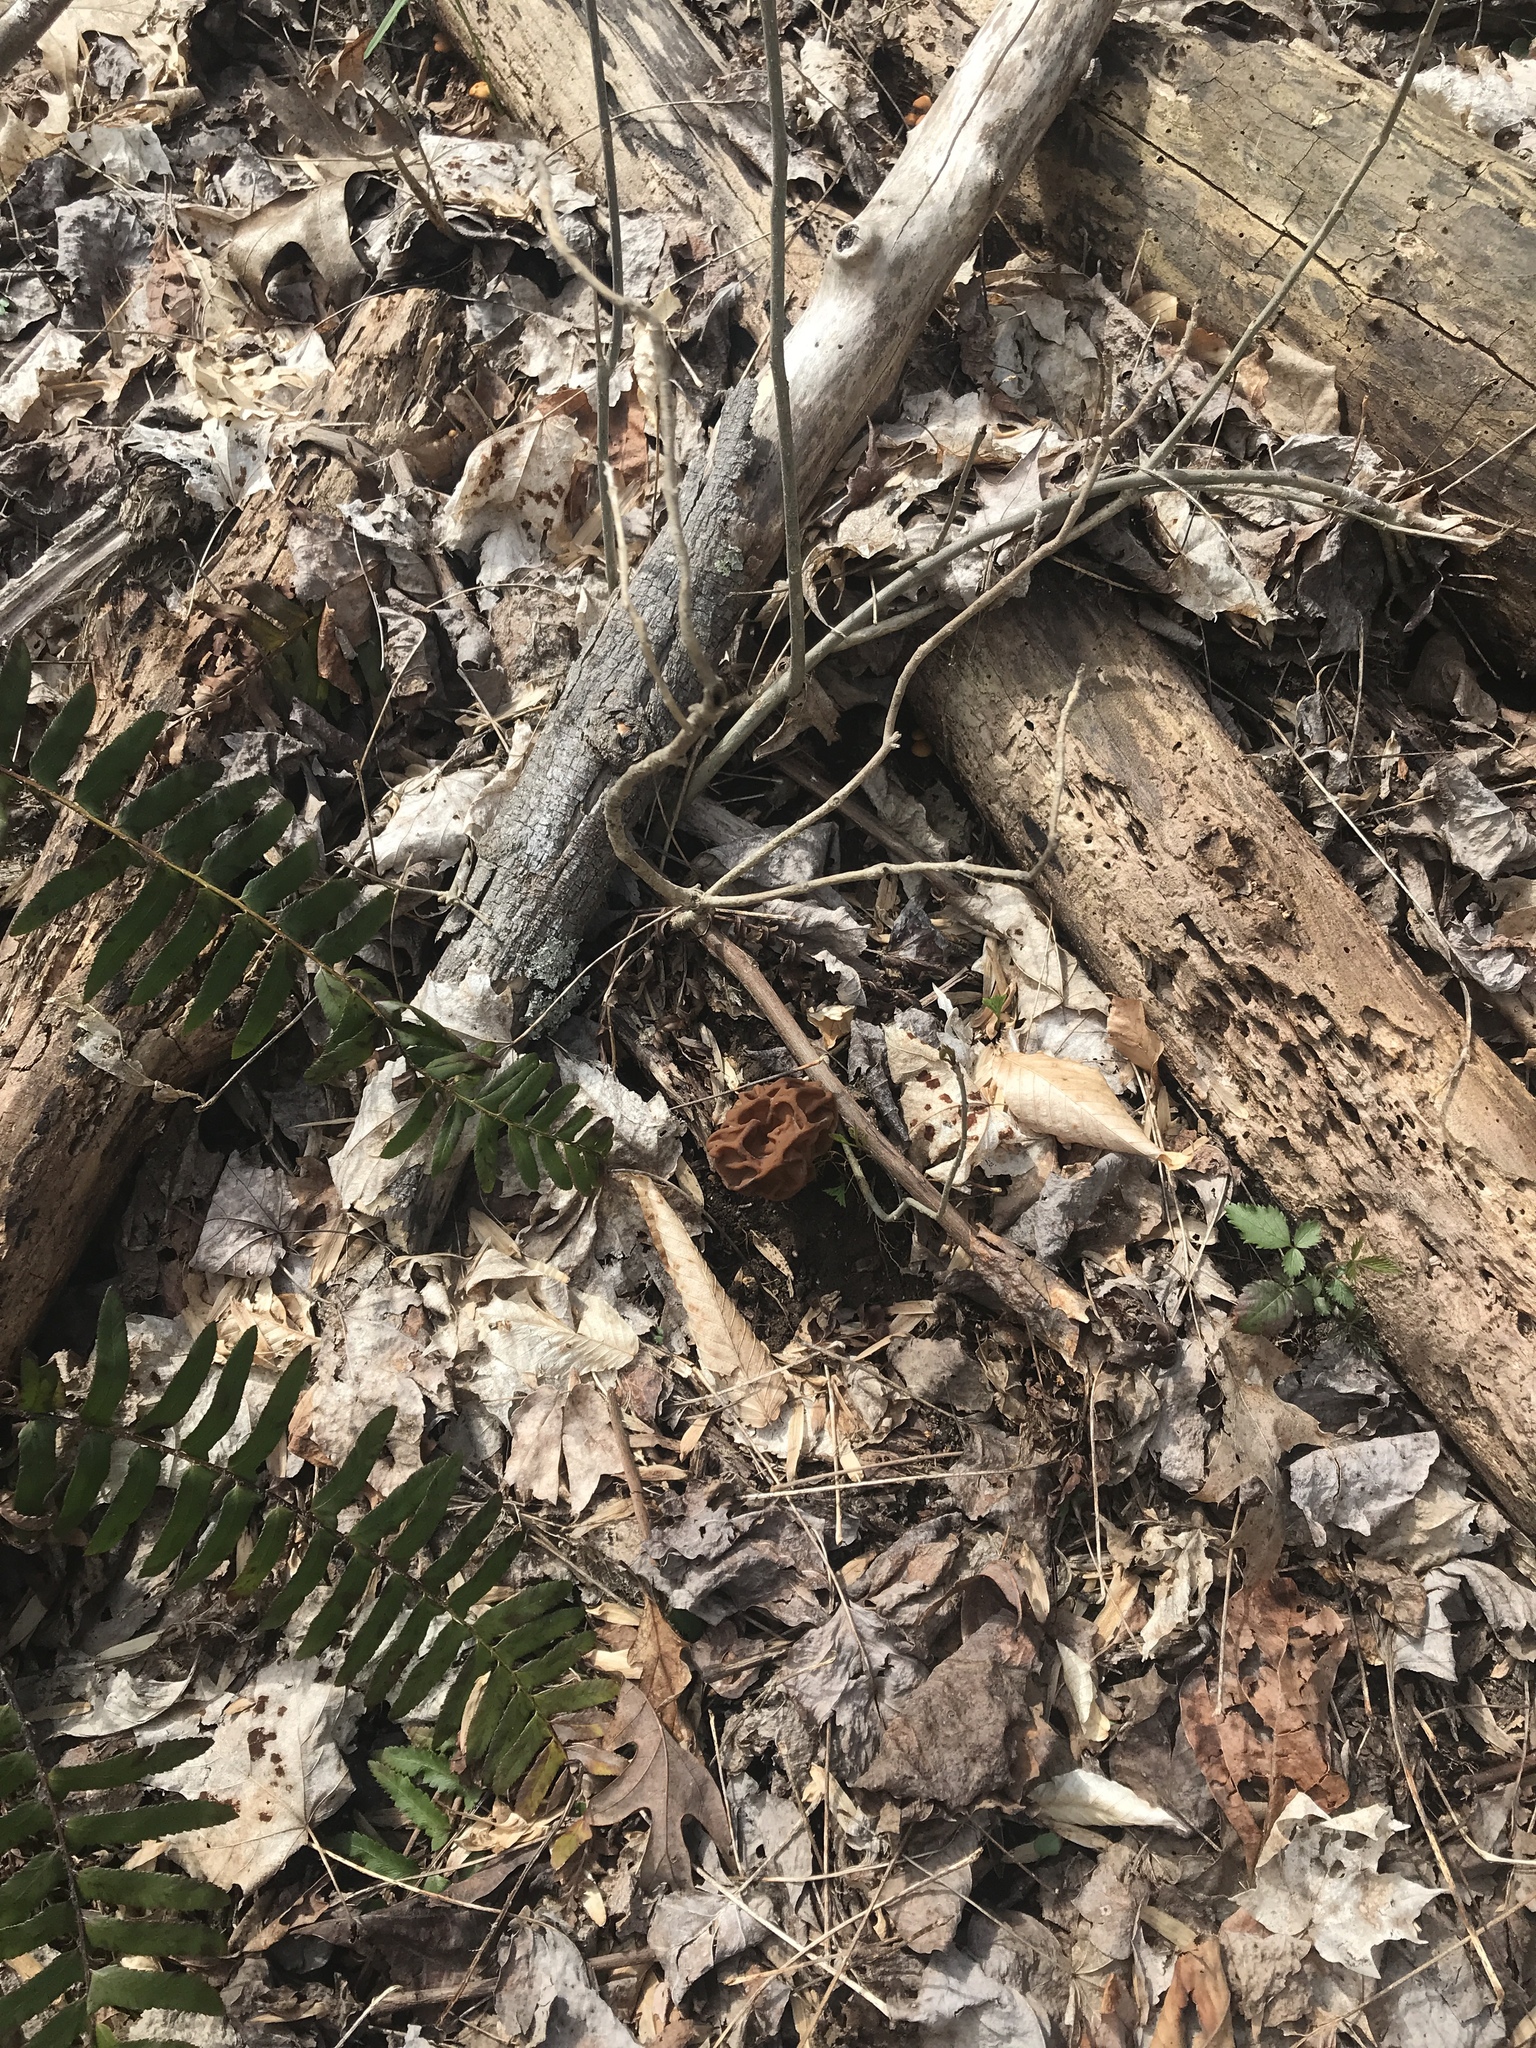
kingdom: Fungi
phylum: Ascomycota
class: Pezizomycetes
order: Pezizales
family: Discinaceae
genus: Gyromitra
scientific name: Gyromitra korfii
